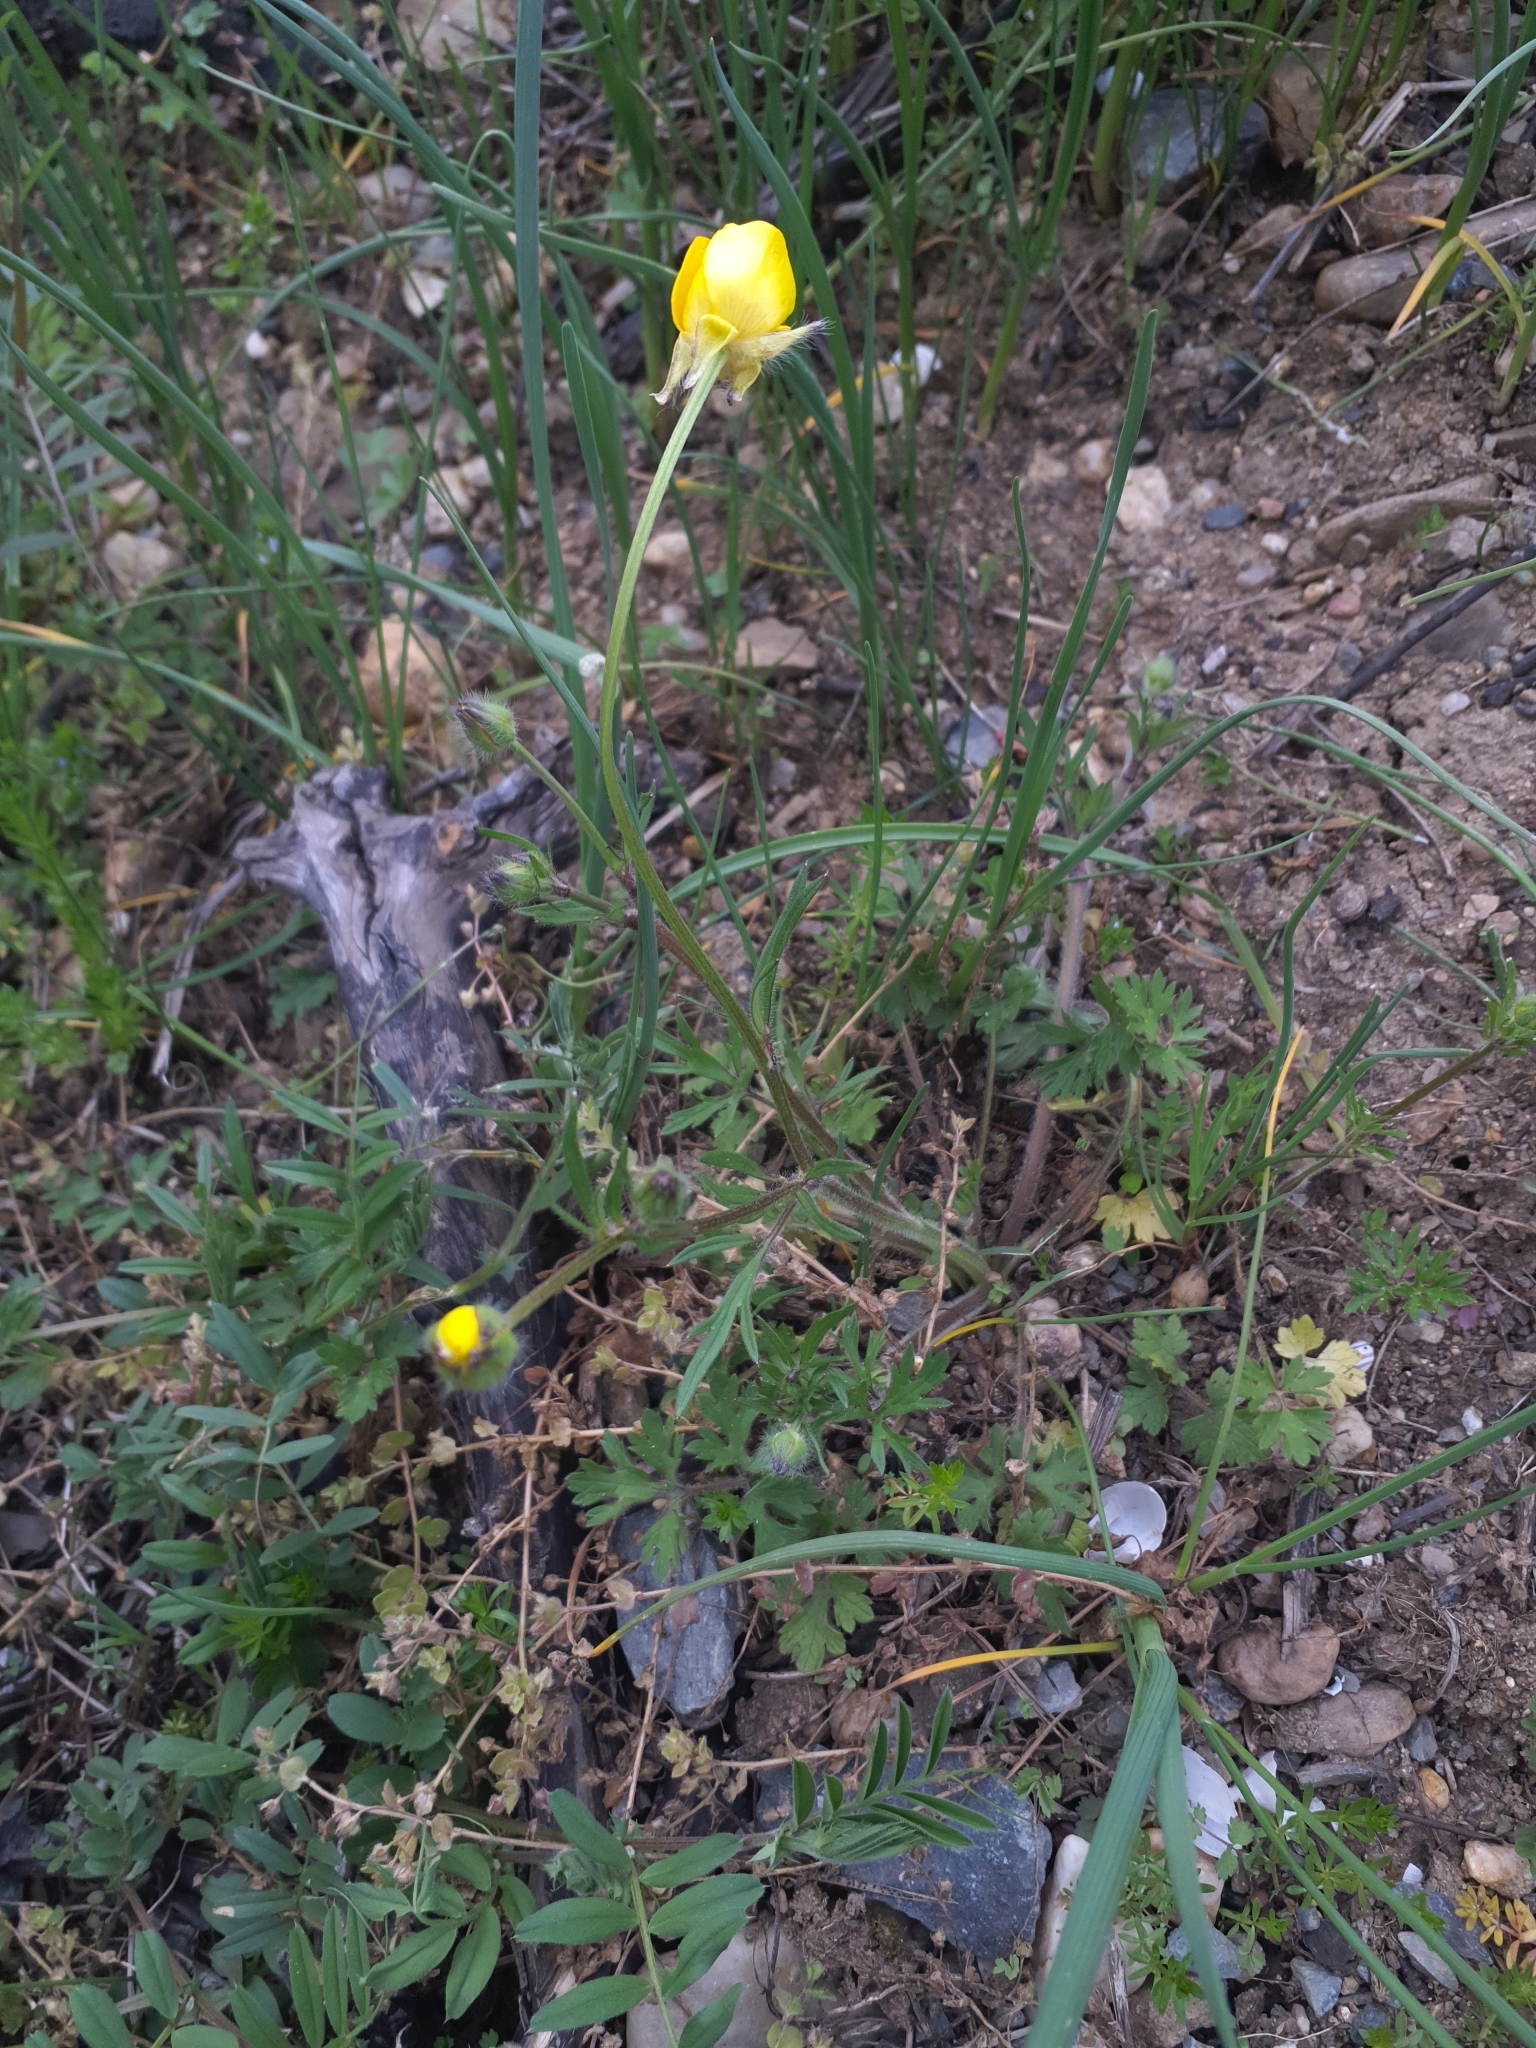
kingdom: Plantae
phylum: Tracheophyta
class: Magnoliopsida
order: Ranunculales
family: Ranunculaceae
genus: Ranunculus
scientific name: Ranunculus bulbosus
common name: Bulbous buttercup
